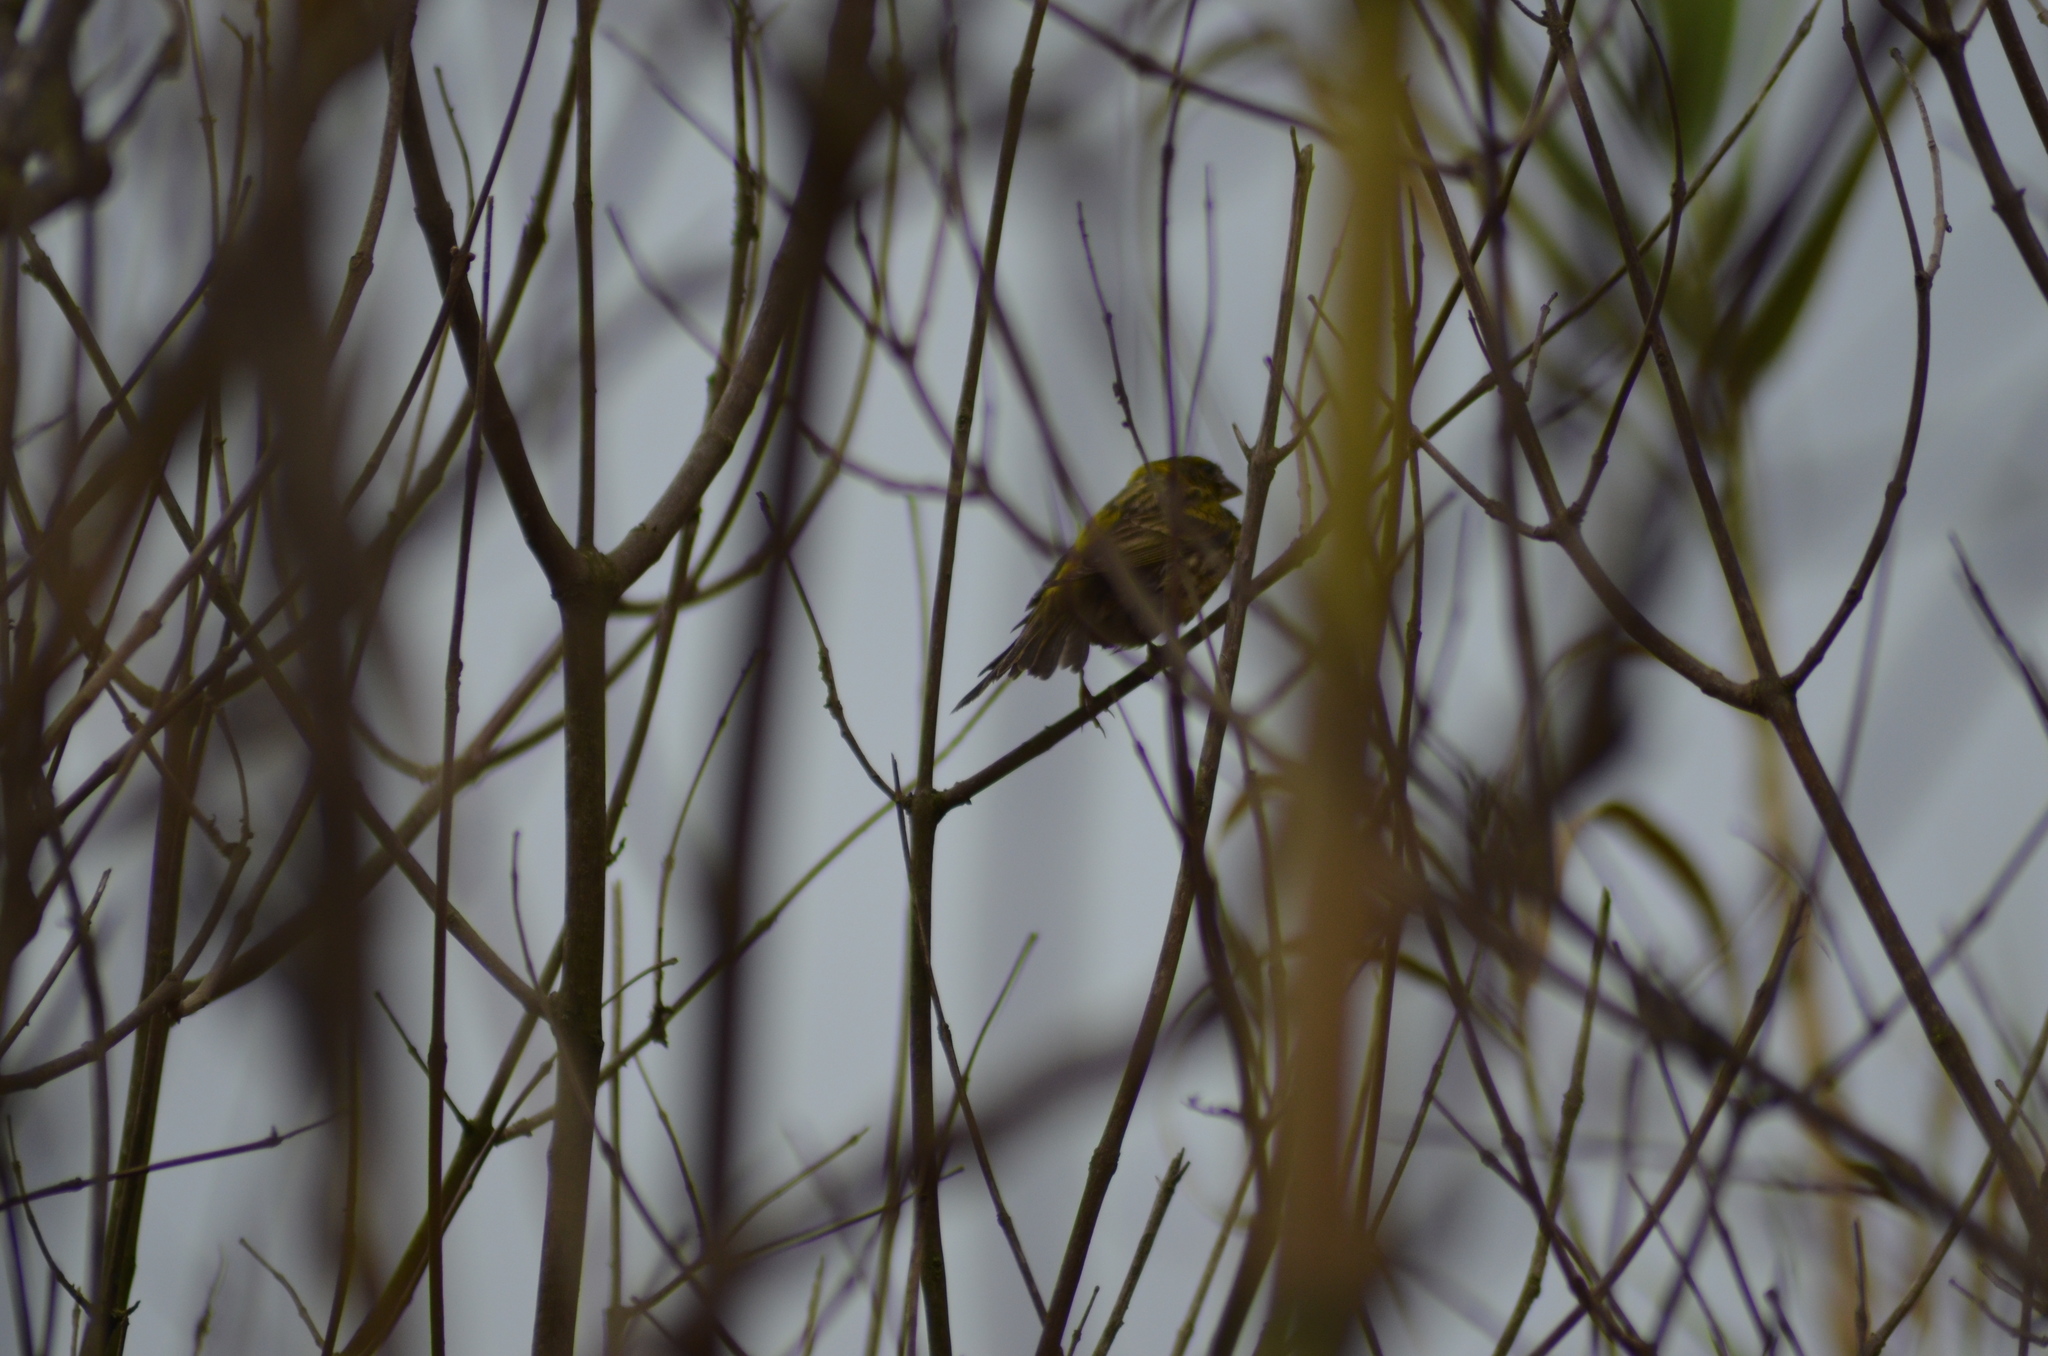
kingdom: Animalia
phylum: Chordata
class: Aves
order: Passeriformes
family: Fringillidae
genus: Serinus
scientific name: Serinus serinus
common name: European serin
